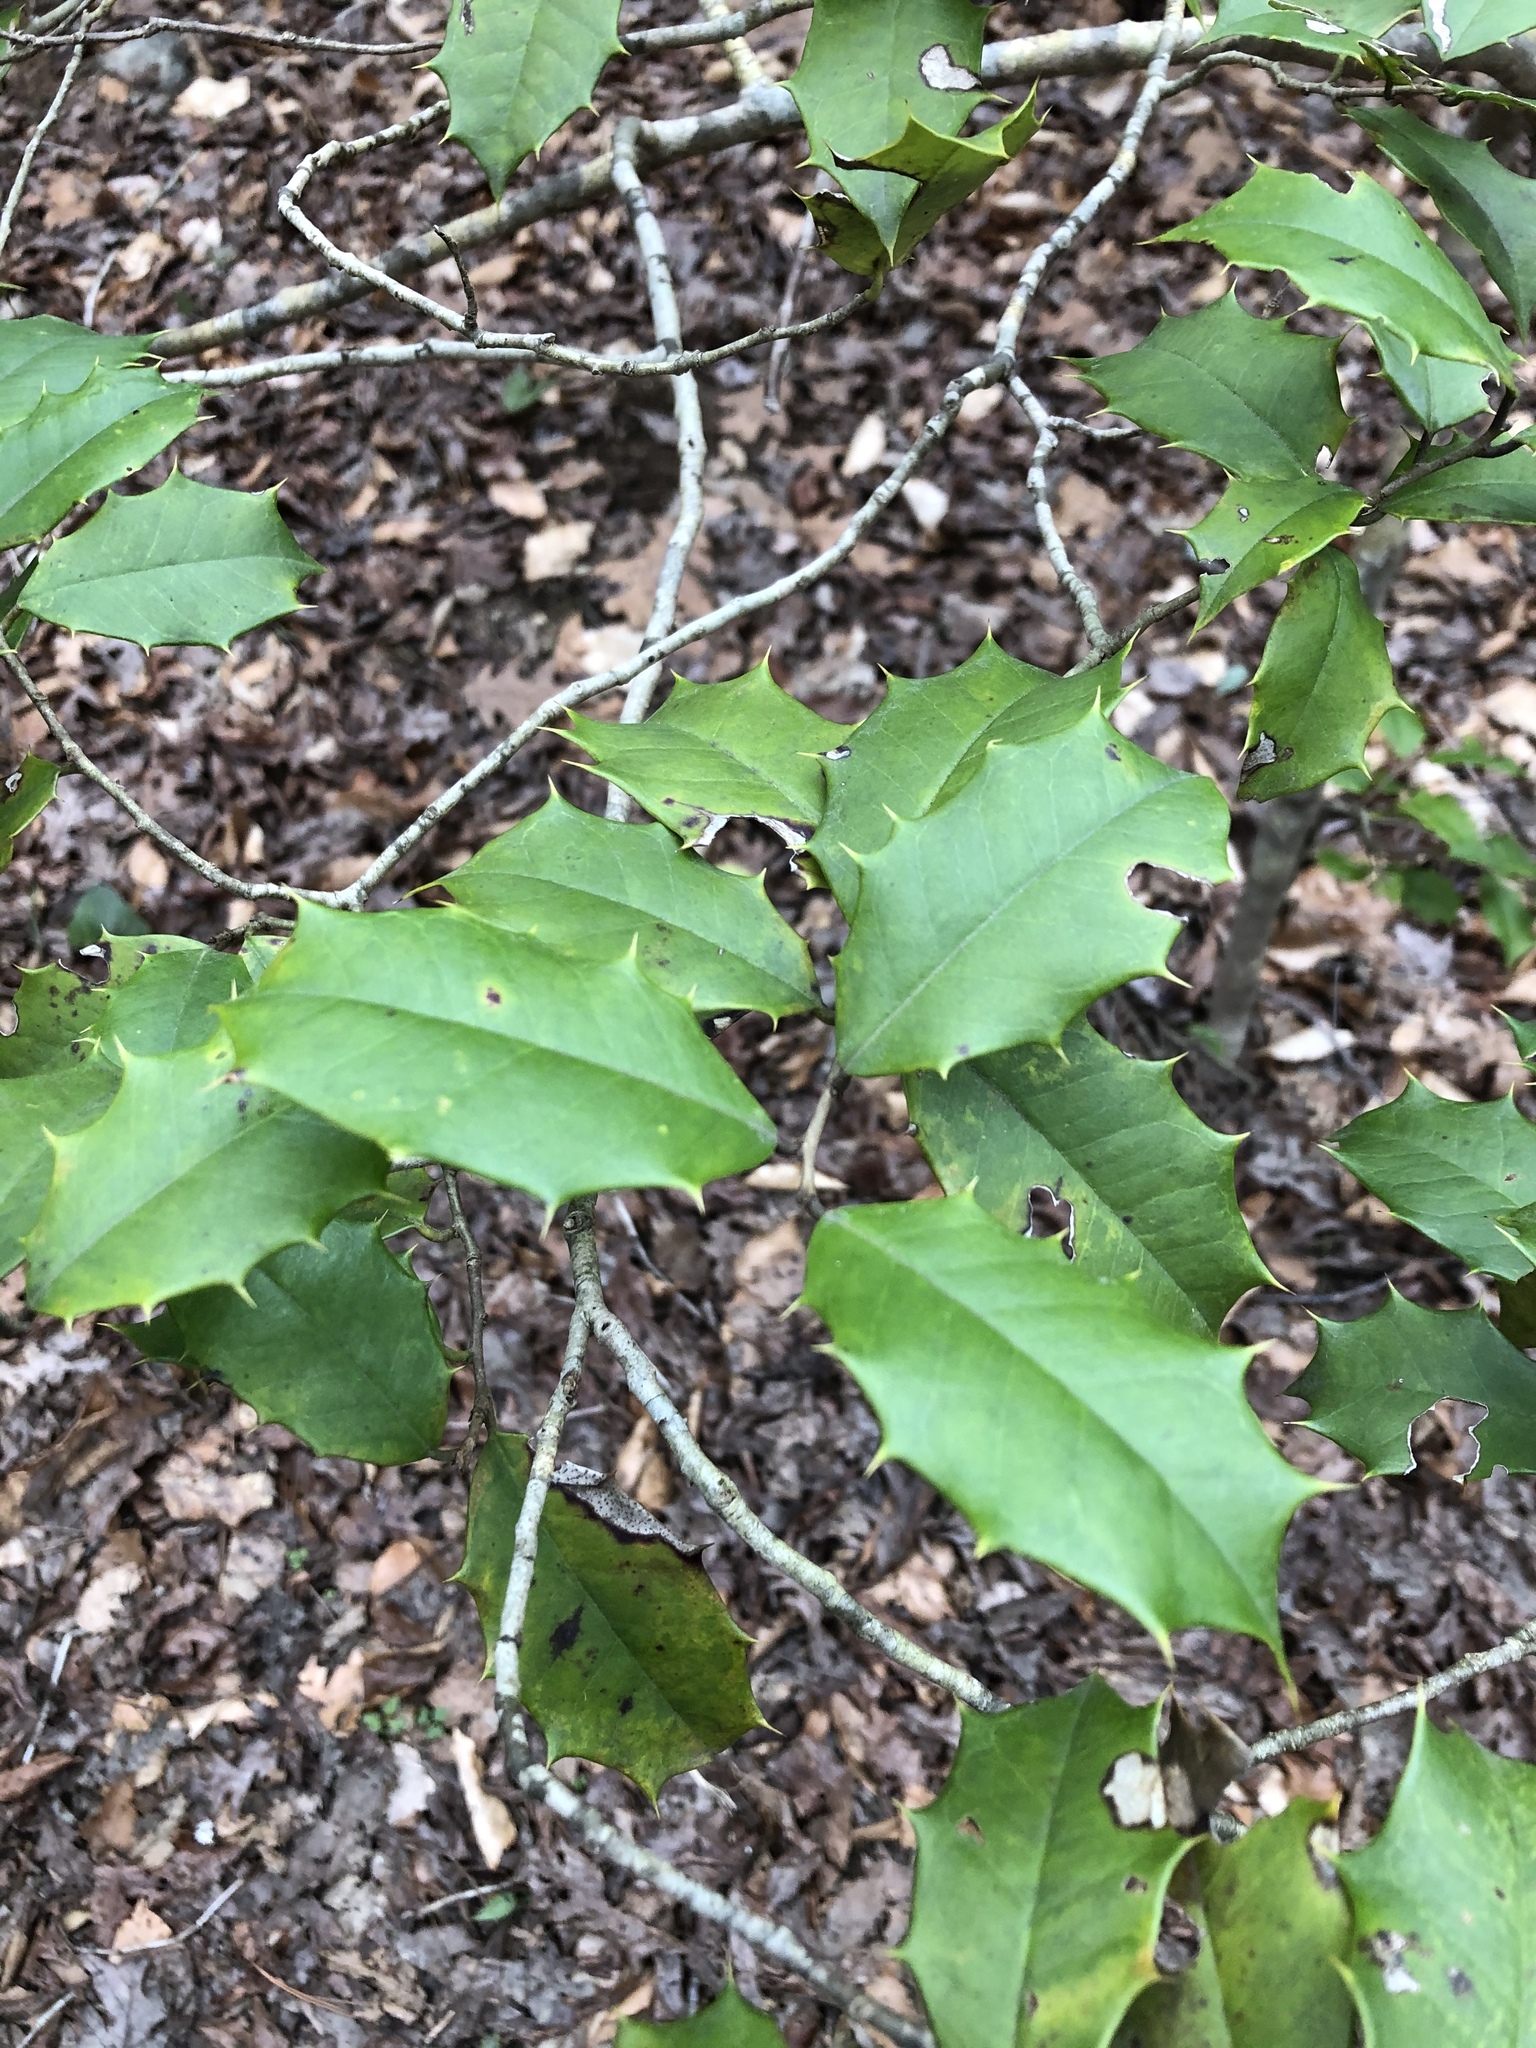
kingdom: Plantae
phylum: Tracheophyta
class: Magnoliopsida
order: Aquifoliales
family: Aquifoliaceae
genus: Ilex
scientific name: Ilex opaca
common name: American holly
